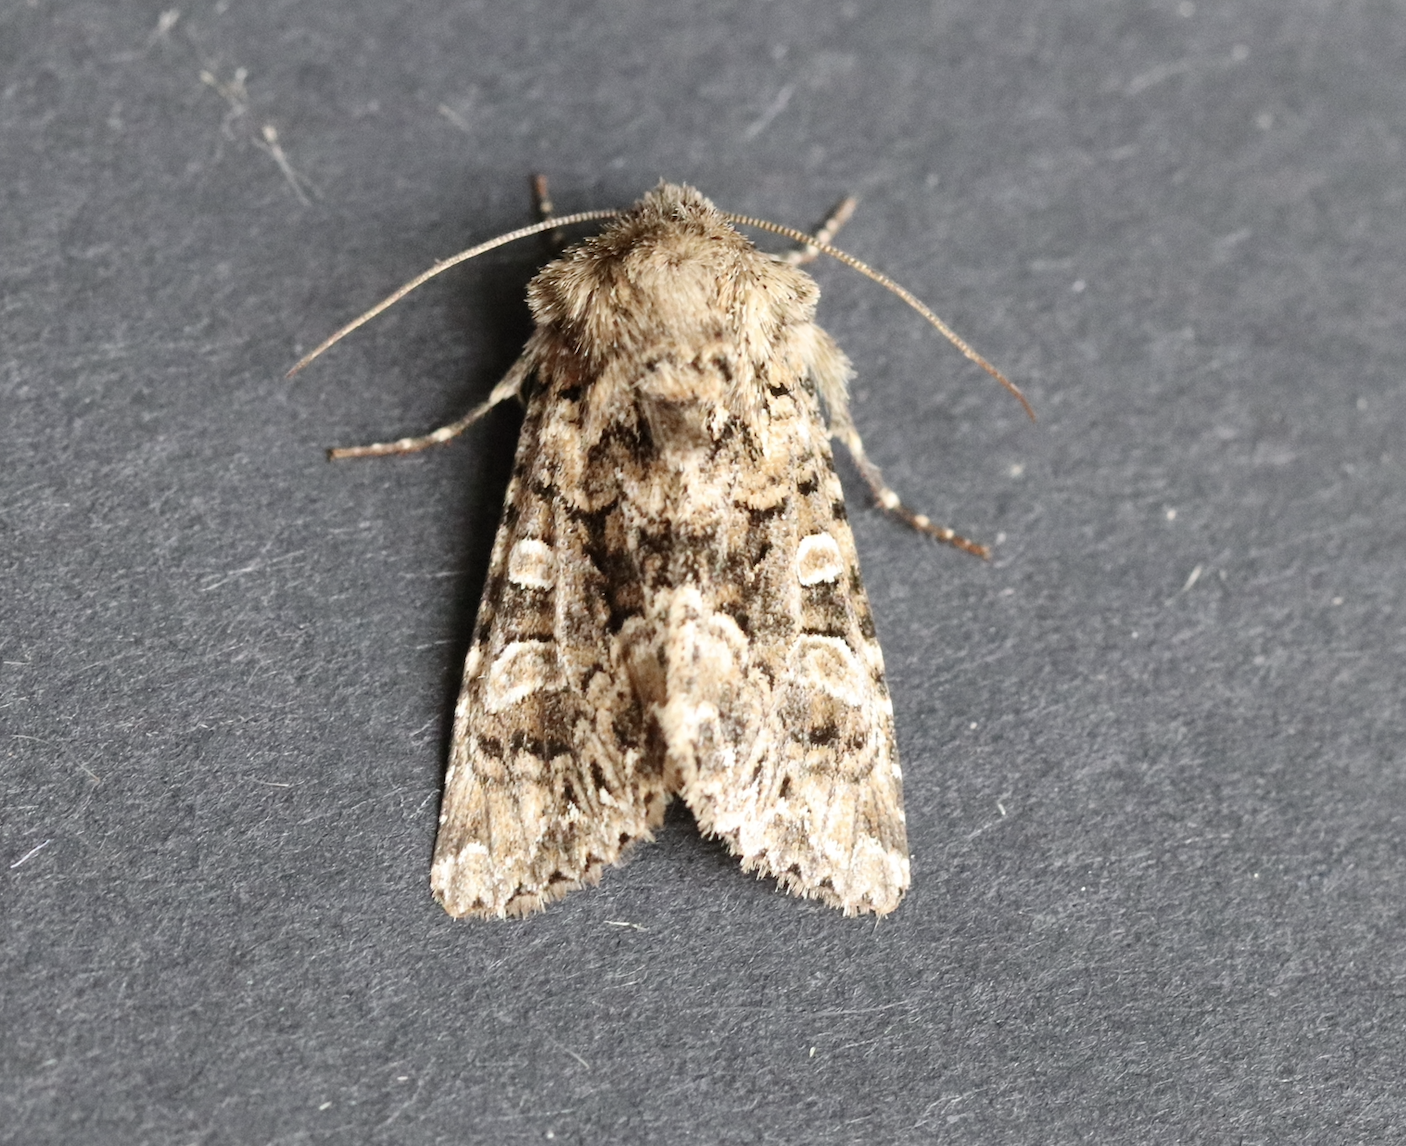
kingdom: Animalia
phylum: Arthropoda
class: Insecta
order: Lepidoptera
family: Noctuidae
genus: Hadena
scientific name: Hadena perplexa
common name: Tawny shears
